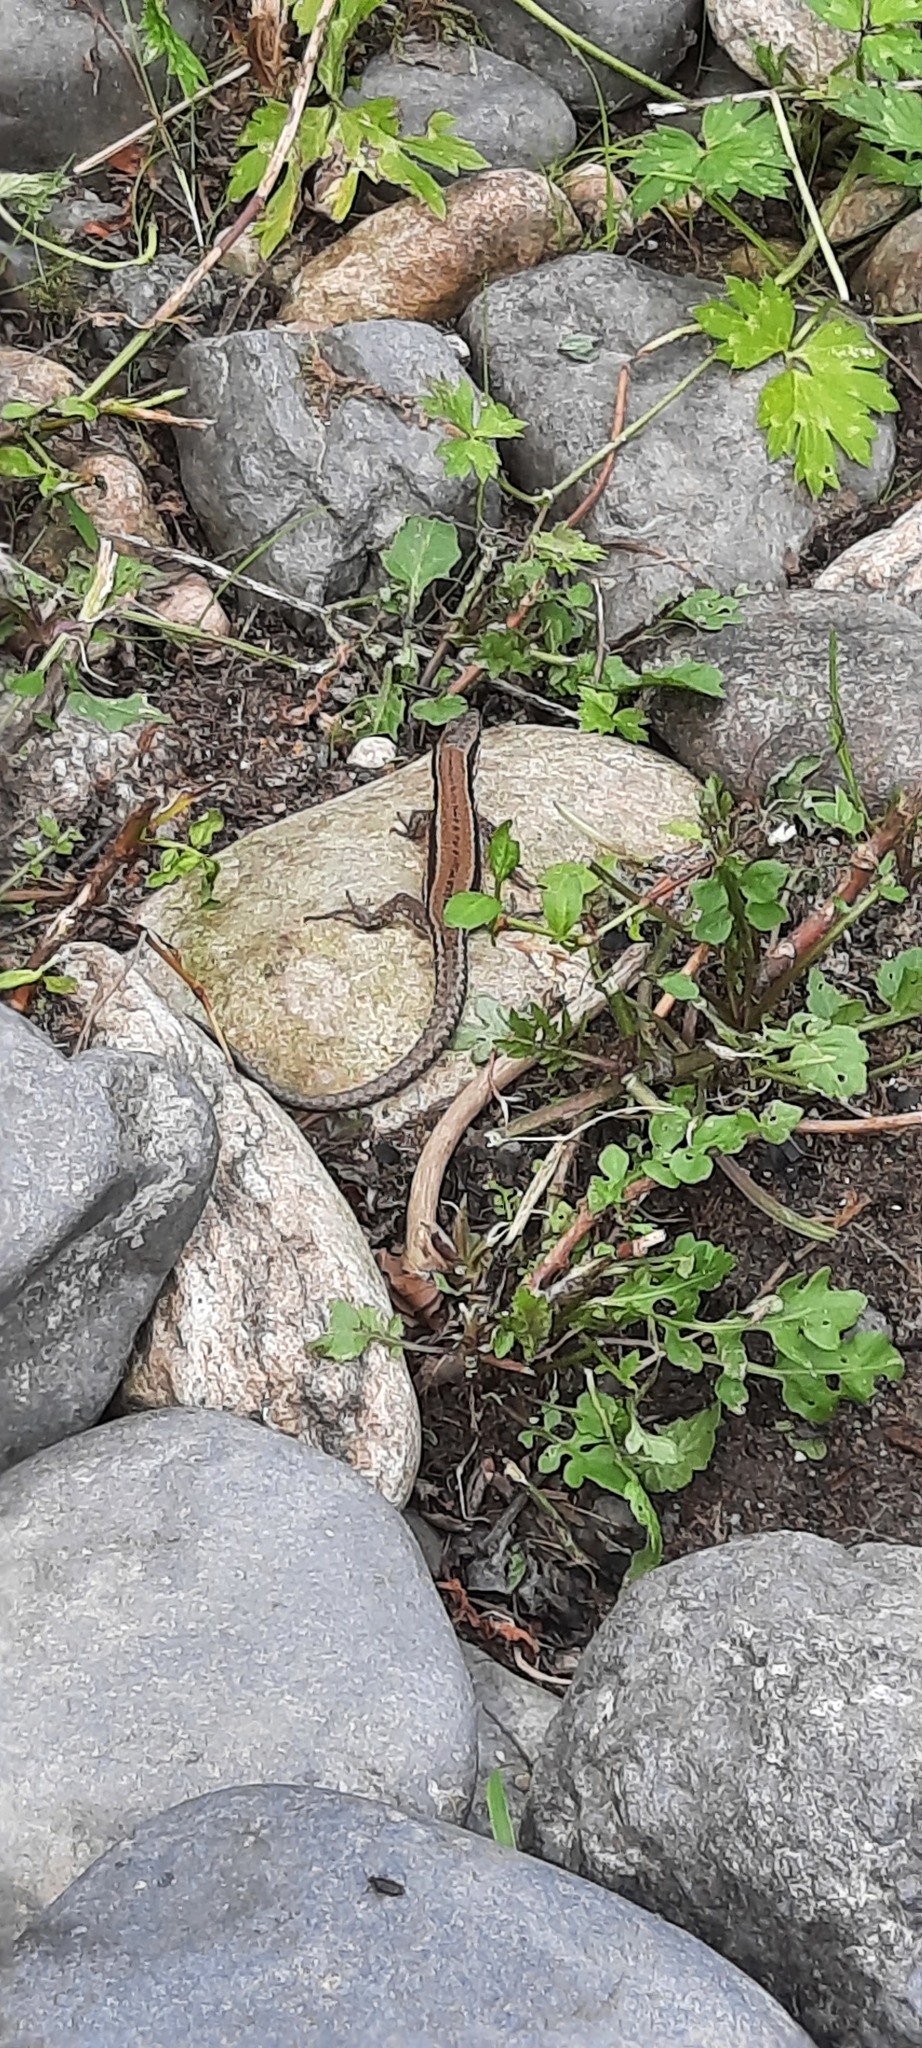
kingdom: Animalia
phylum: Chordata
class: Squamata
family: Lacertidae
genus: Podarcis
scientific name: Podarcis muralis
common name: Common wall lizard
